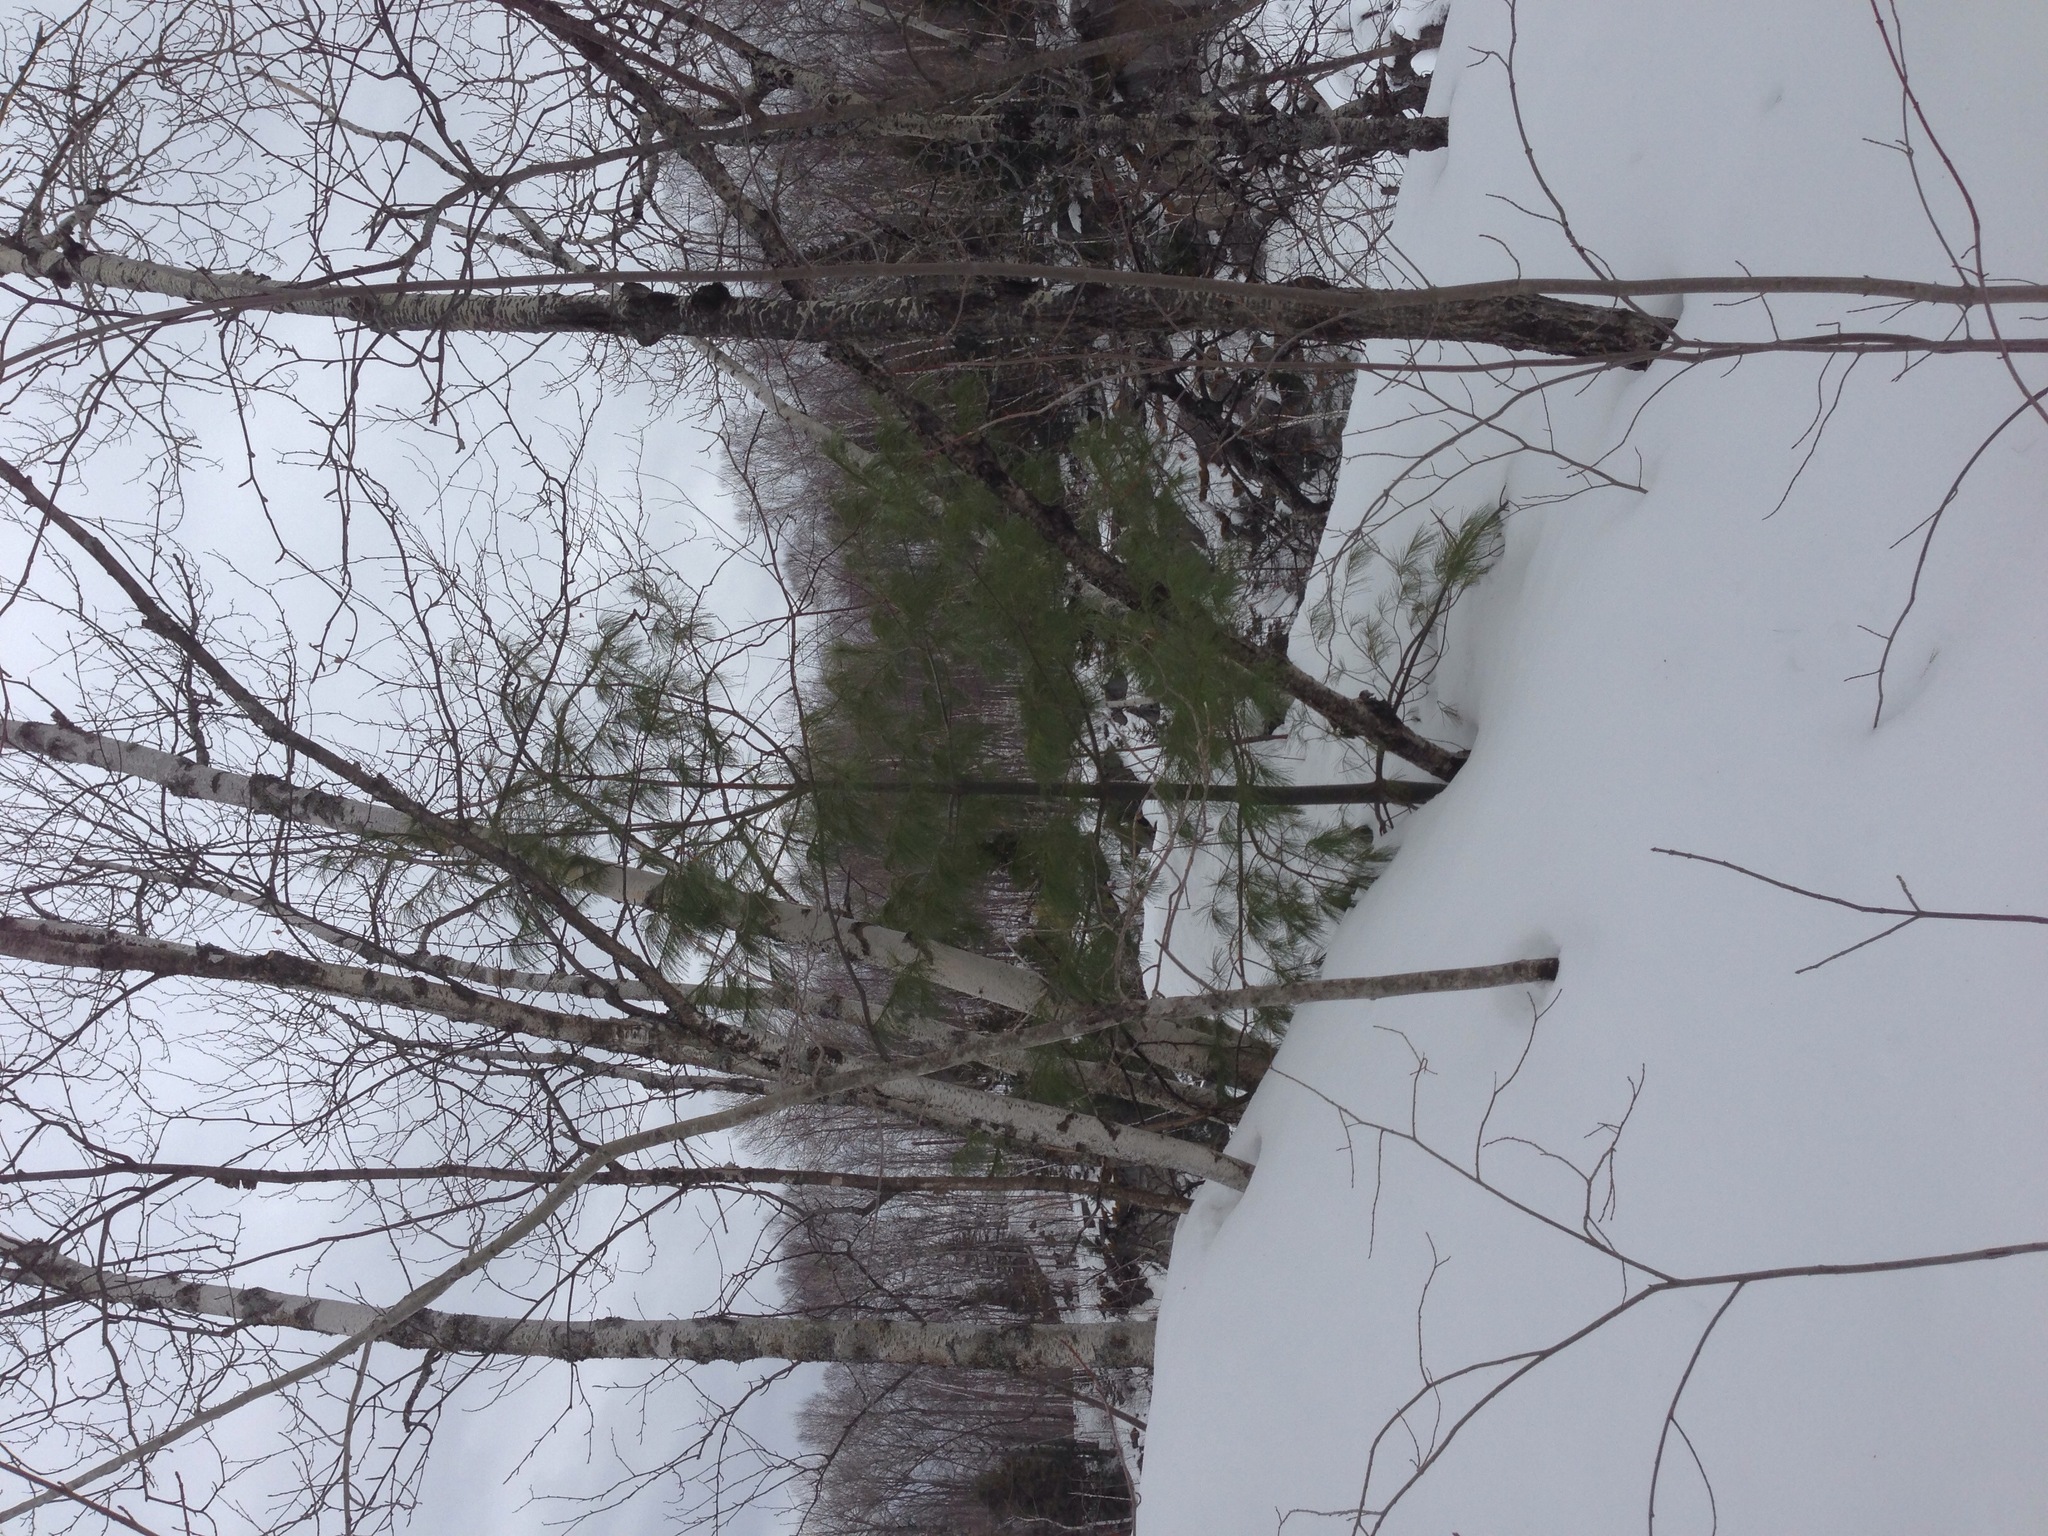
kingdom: Plantae
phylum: Tracheophyta
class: Pinopsida
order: Pinales
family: Pinaceae
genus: Pinus
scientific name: Pinus strobus
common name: Weymouth pine
